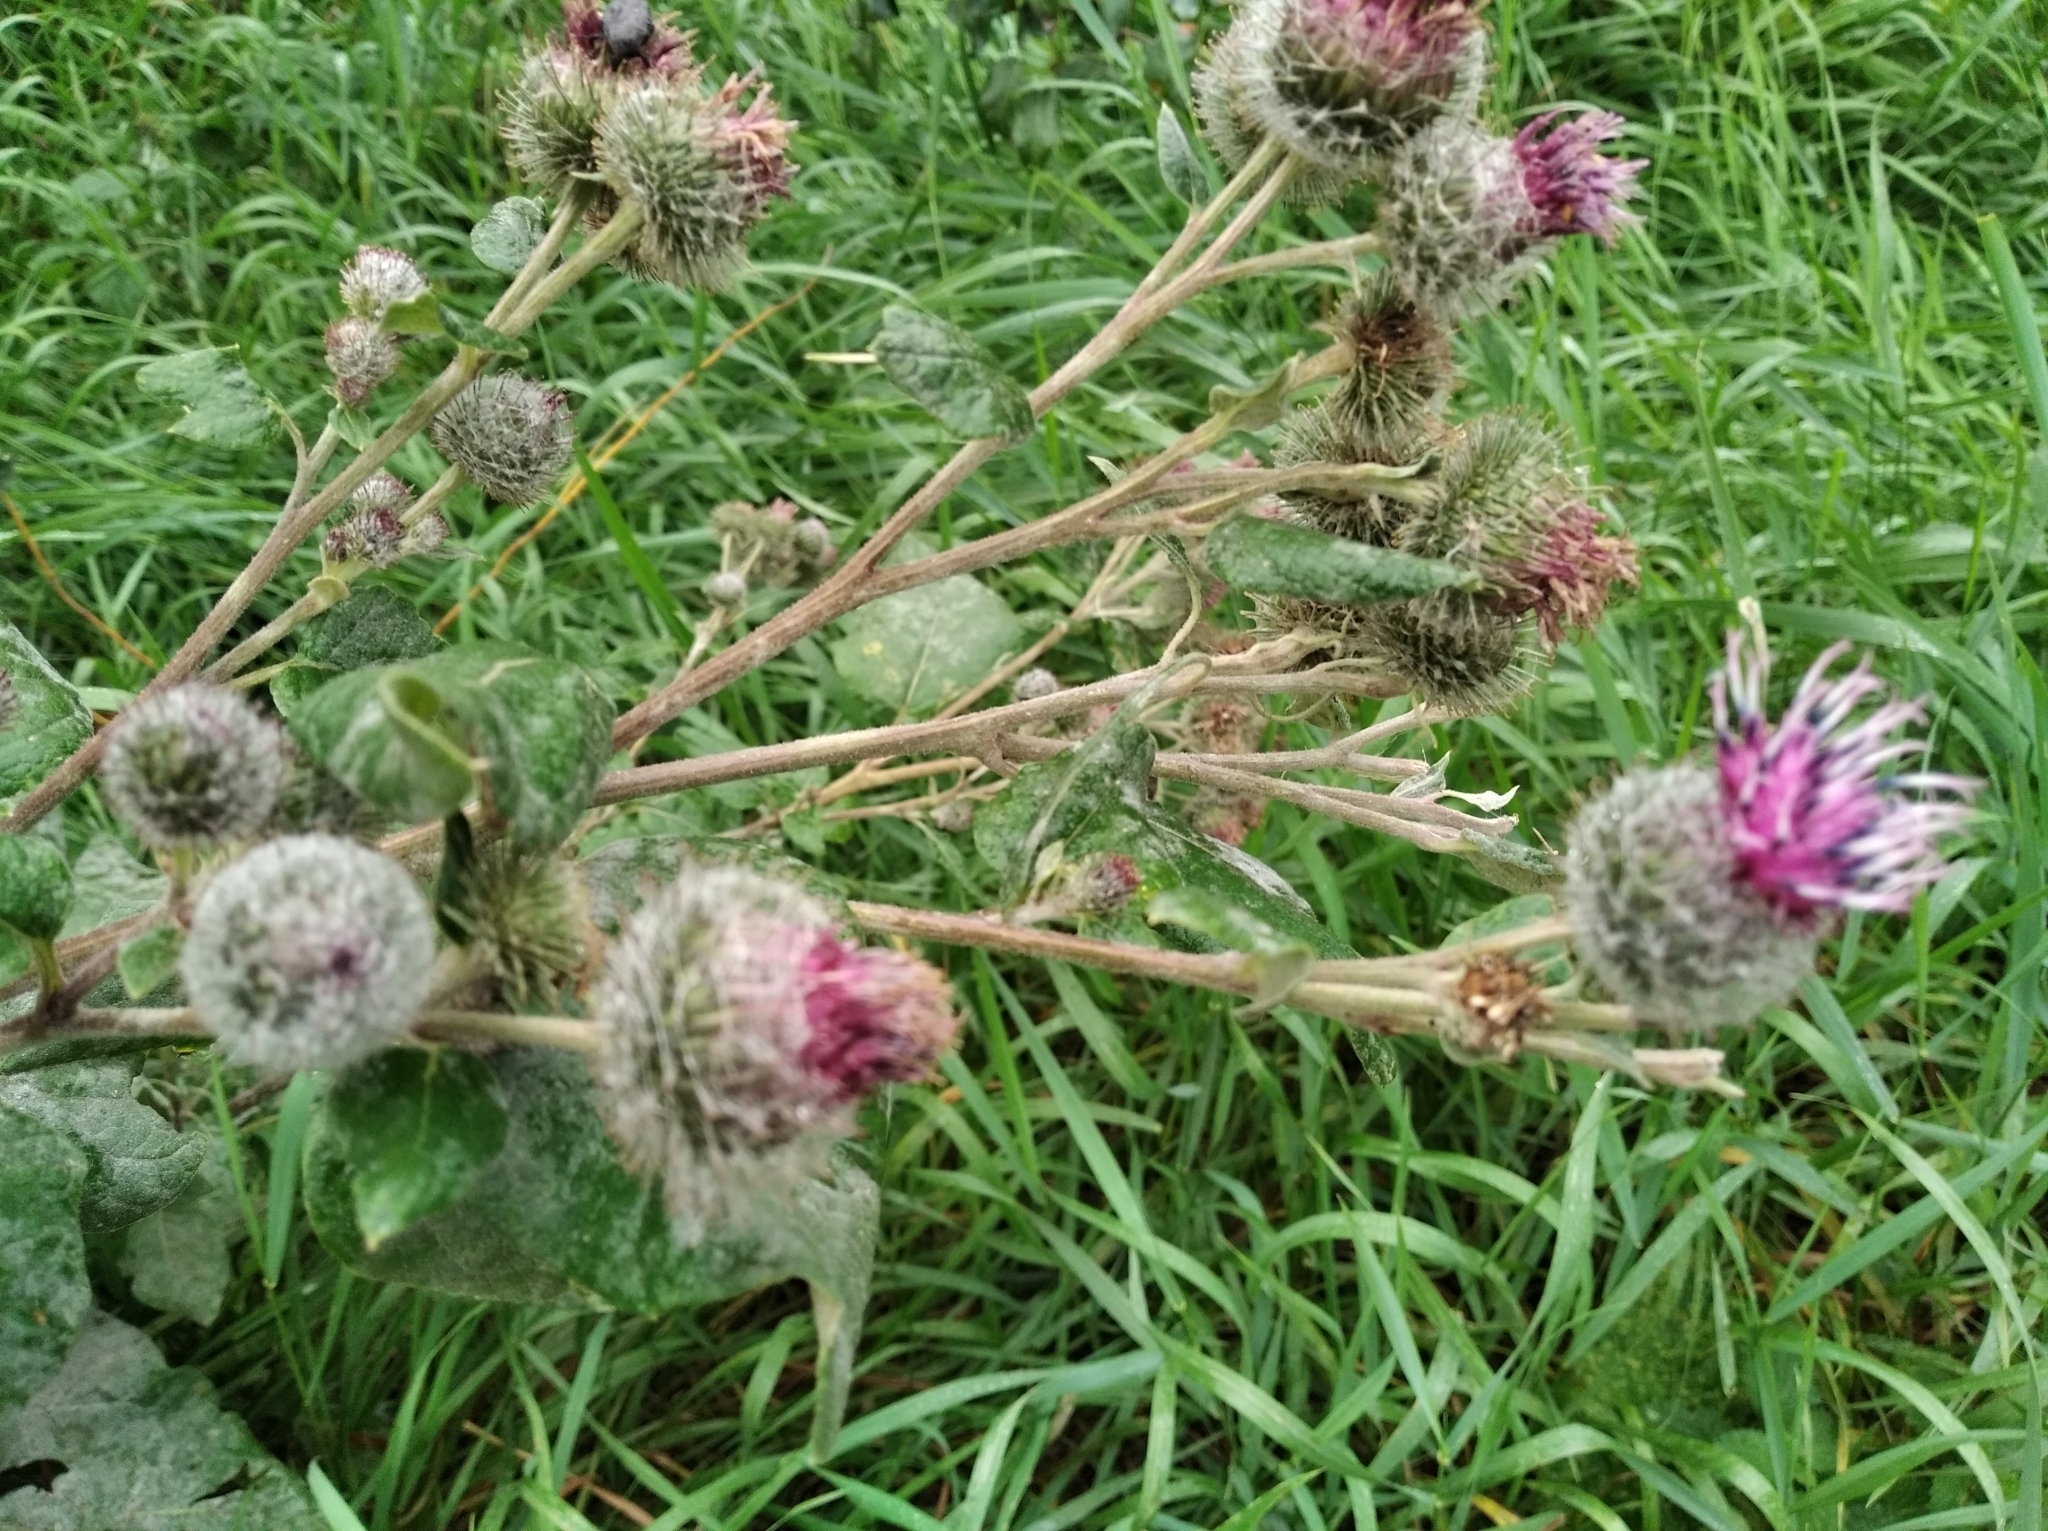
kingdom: Plantae
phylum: Tracheophyta
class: Magnoliopsida
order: Asterales
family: Asteraceae
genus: Arctium
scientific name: Arctium tomentosum
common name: Woolly burdock
